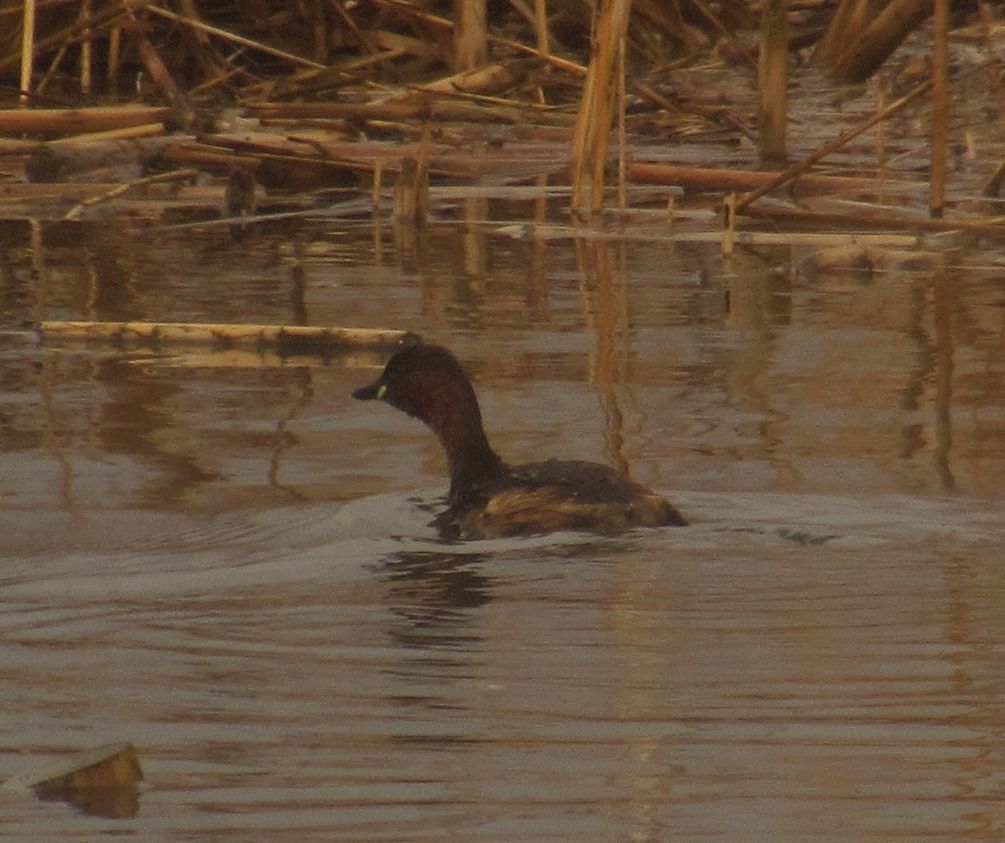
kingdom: Animalia
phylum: Chordata
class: Aves
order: Podicipediformes
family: Podicipedidae
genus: Tachybaptus
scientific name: Tachybaptus ruficollis
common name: Little grebe
